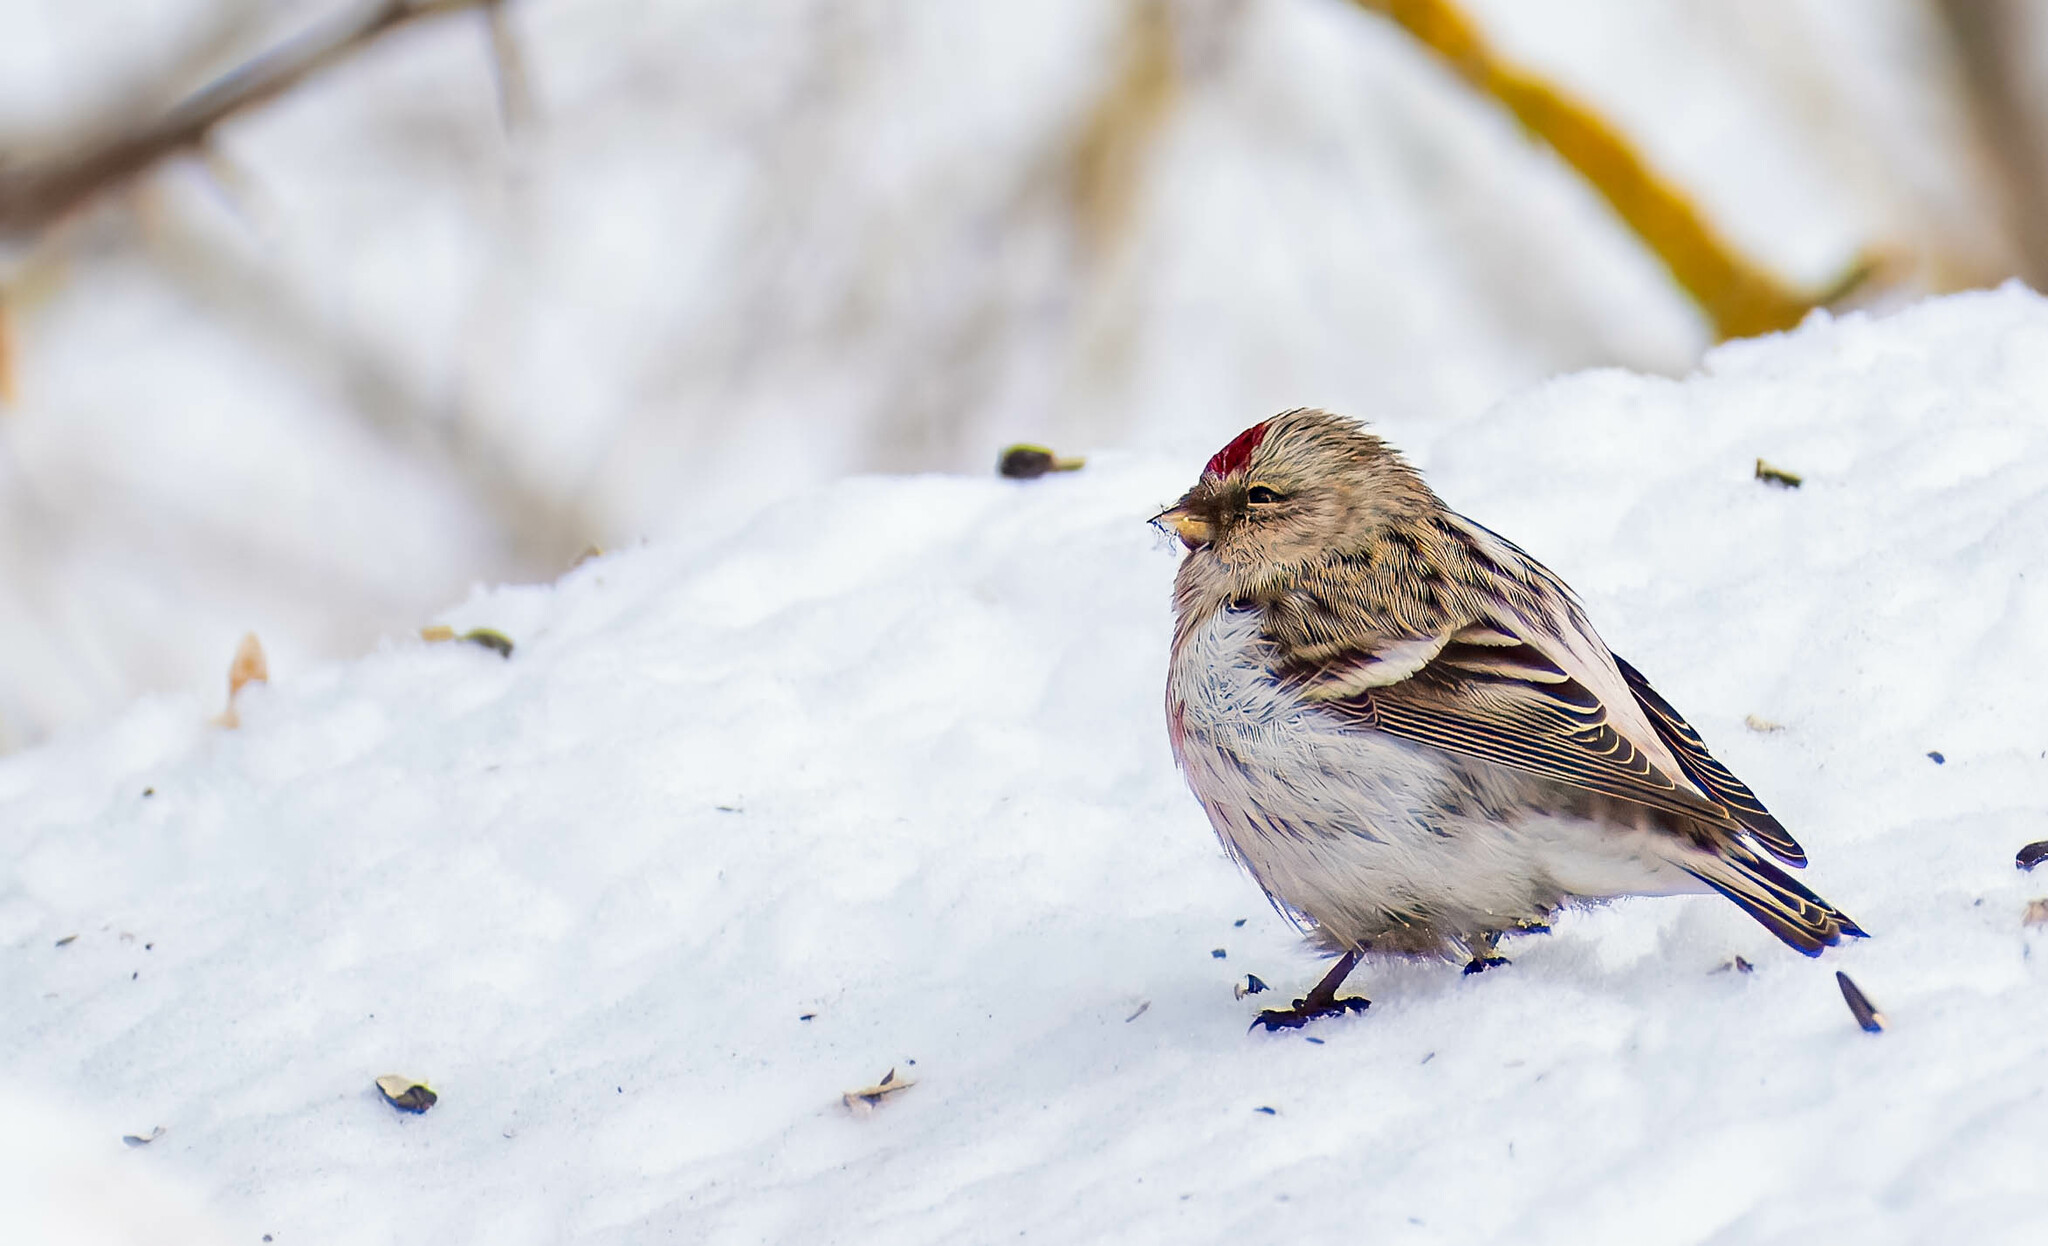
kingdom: Animalia
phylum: Chordata
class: Aves
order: Passeriformes
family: Fringillidae
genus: Acanthis
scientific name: Acanthis hornemanni
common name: Arctic redpoll
